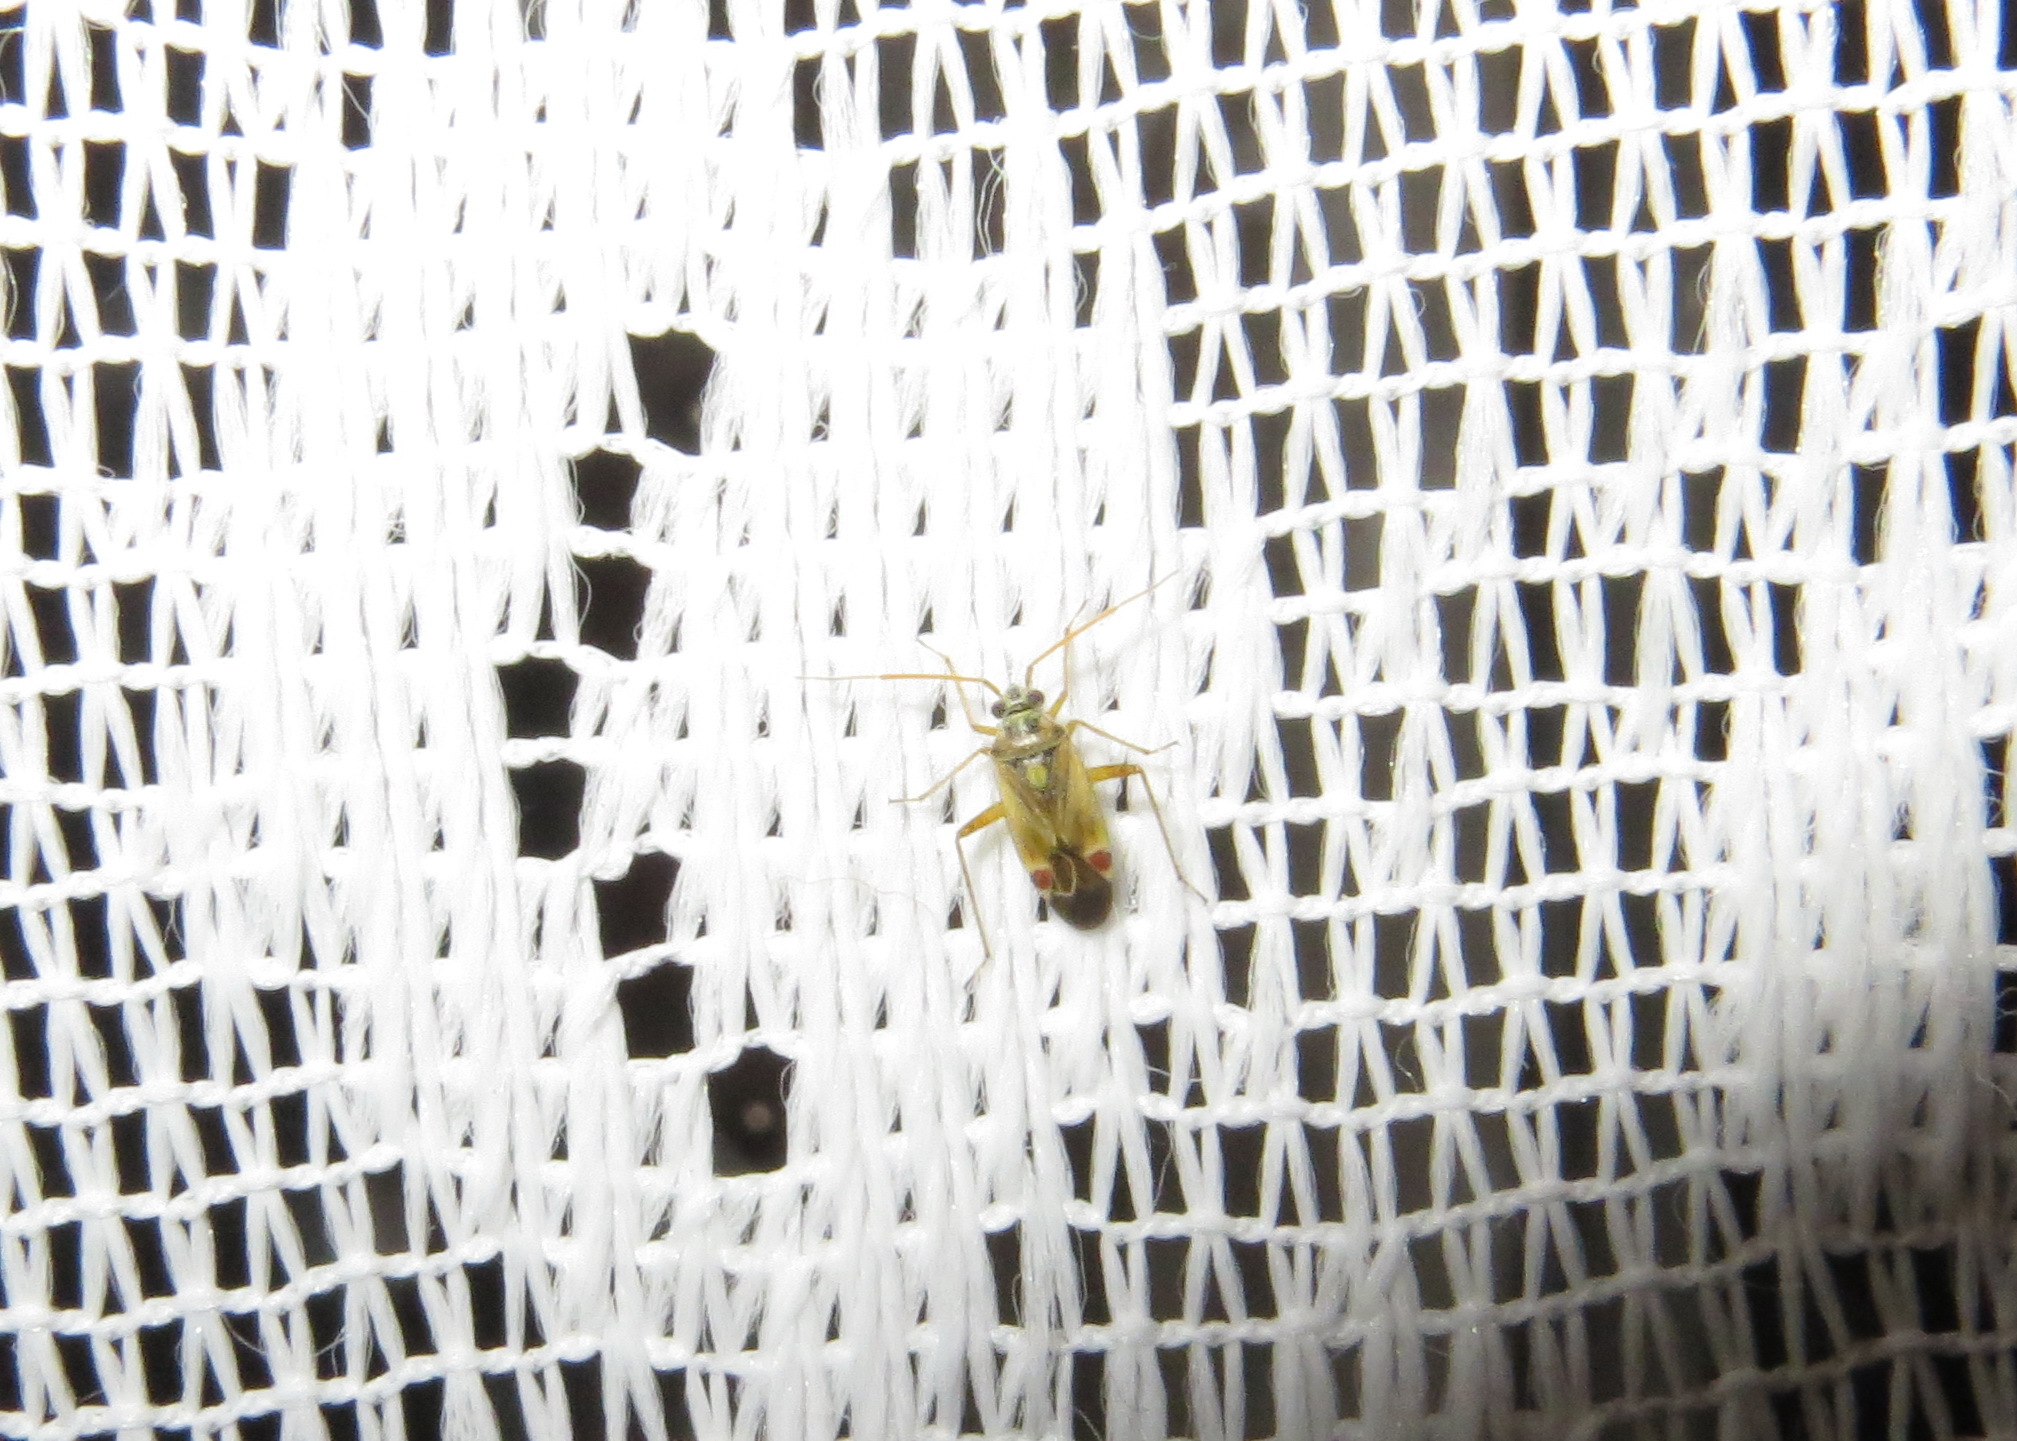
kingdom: Animalia
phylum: Arthropoda
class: Insecta
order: Hemiptera
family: Miridae
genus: Polymerus
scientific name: Polymerus vulneratus
